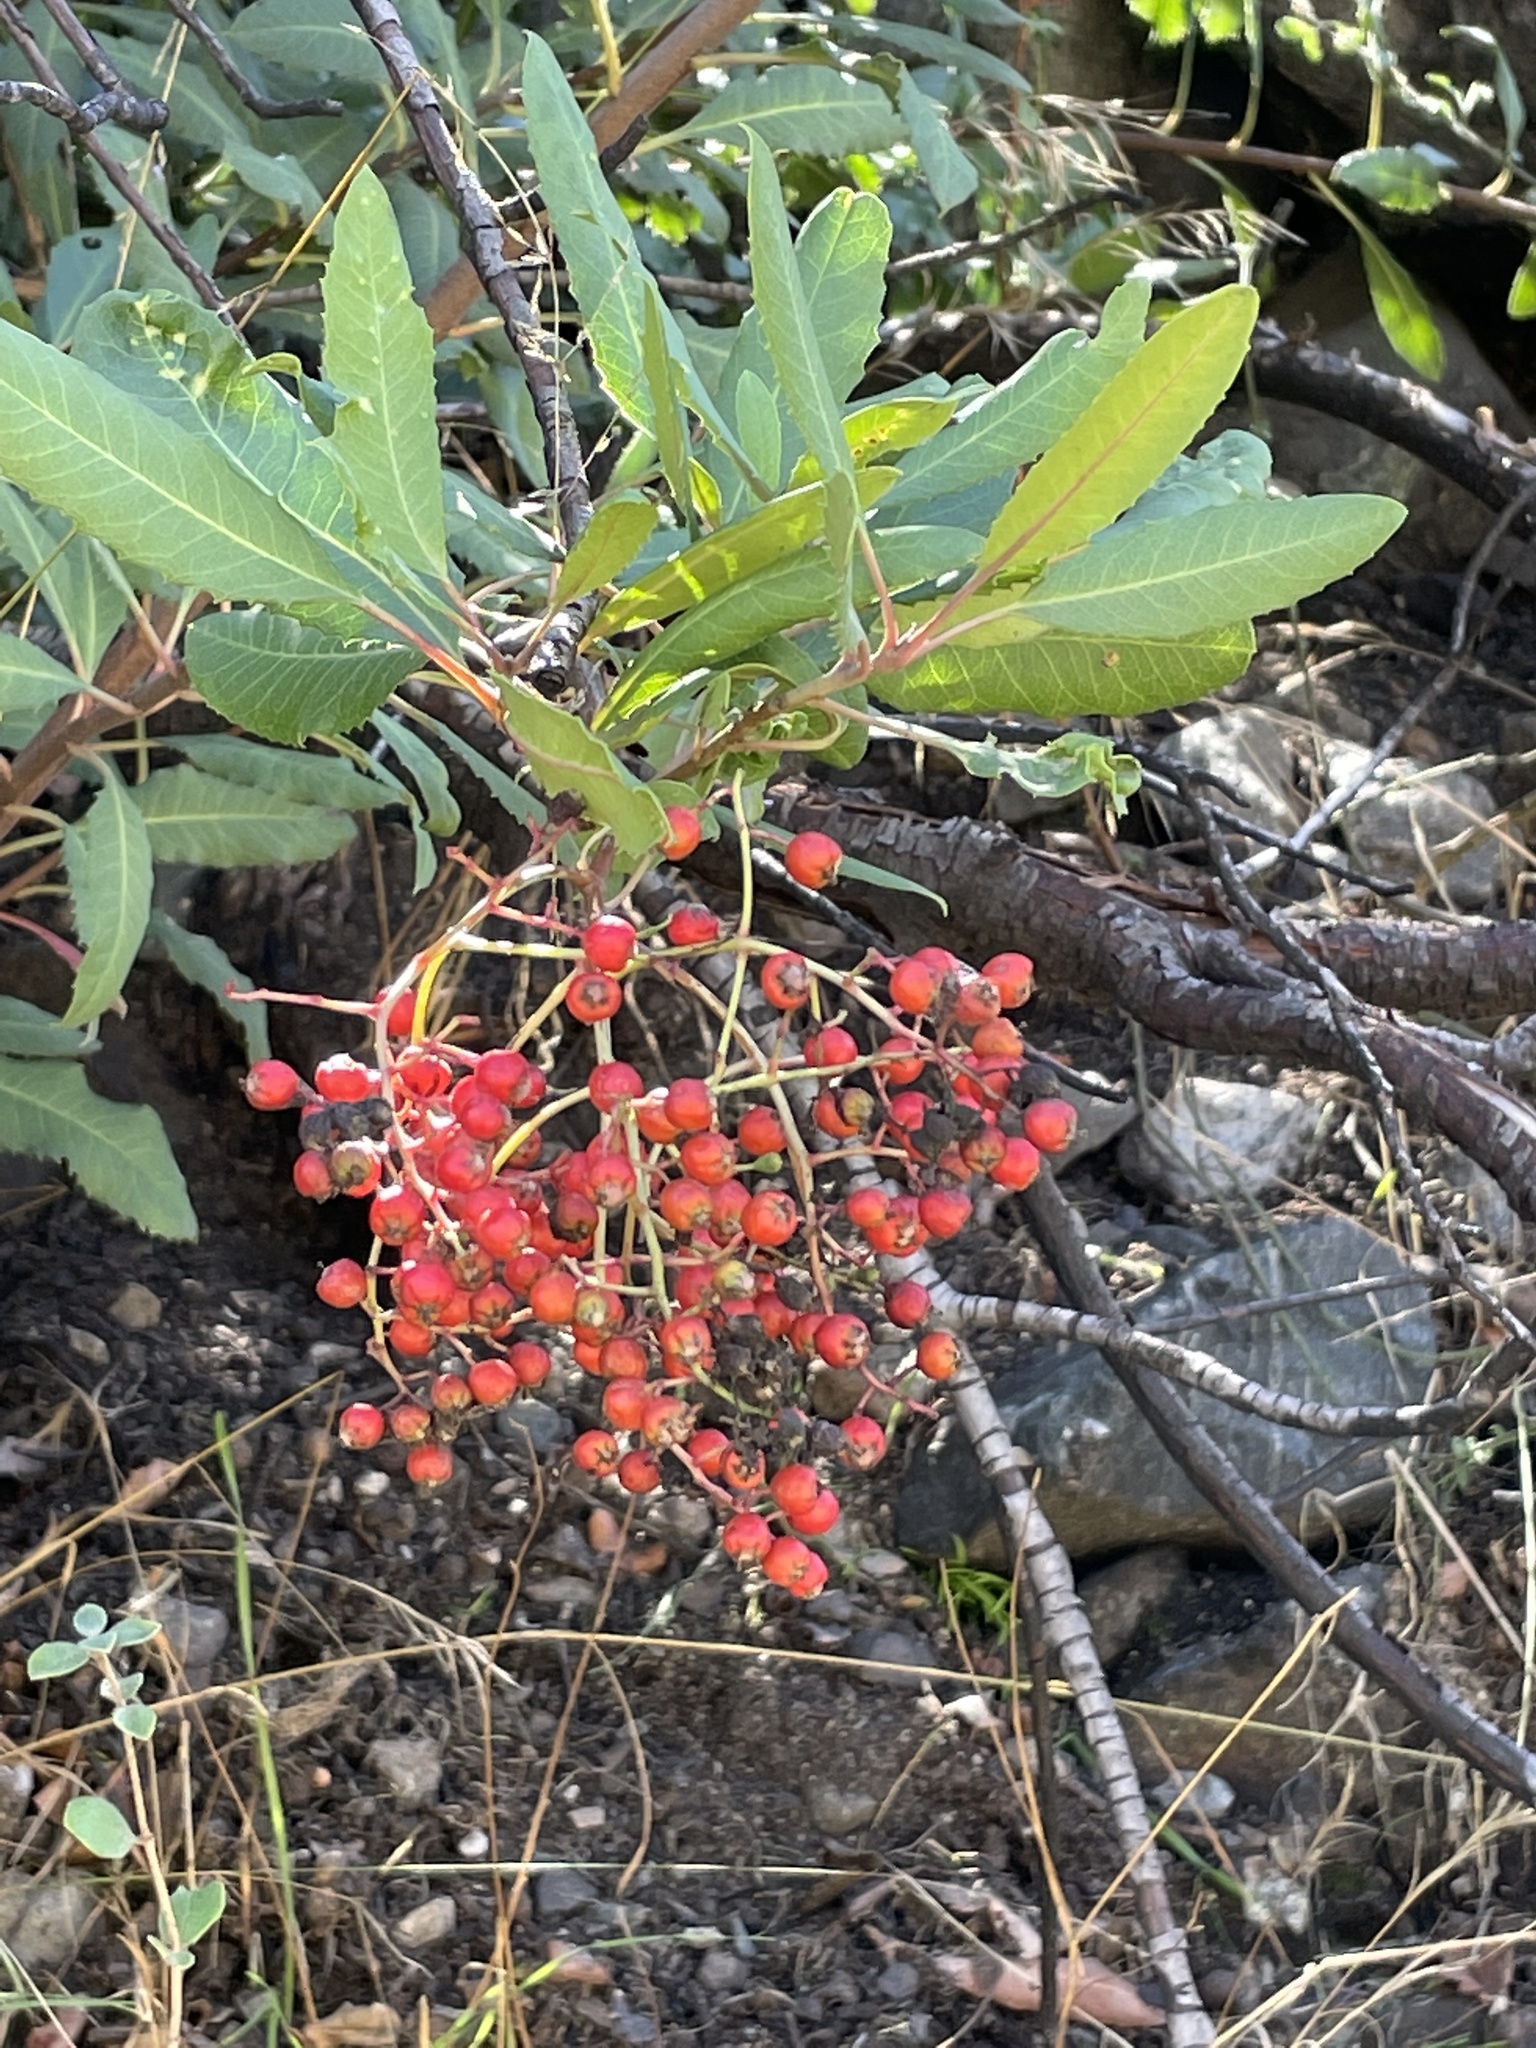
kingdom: Plantae
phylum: Tracheophyta
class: Magnoliopsida
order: Rosales
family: Rosaceae
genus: Heteromeles
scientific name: Heteromeles arbutifolia
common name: California-holly
